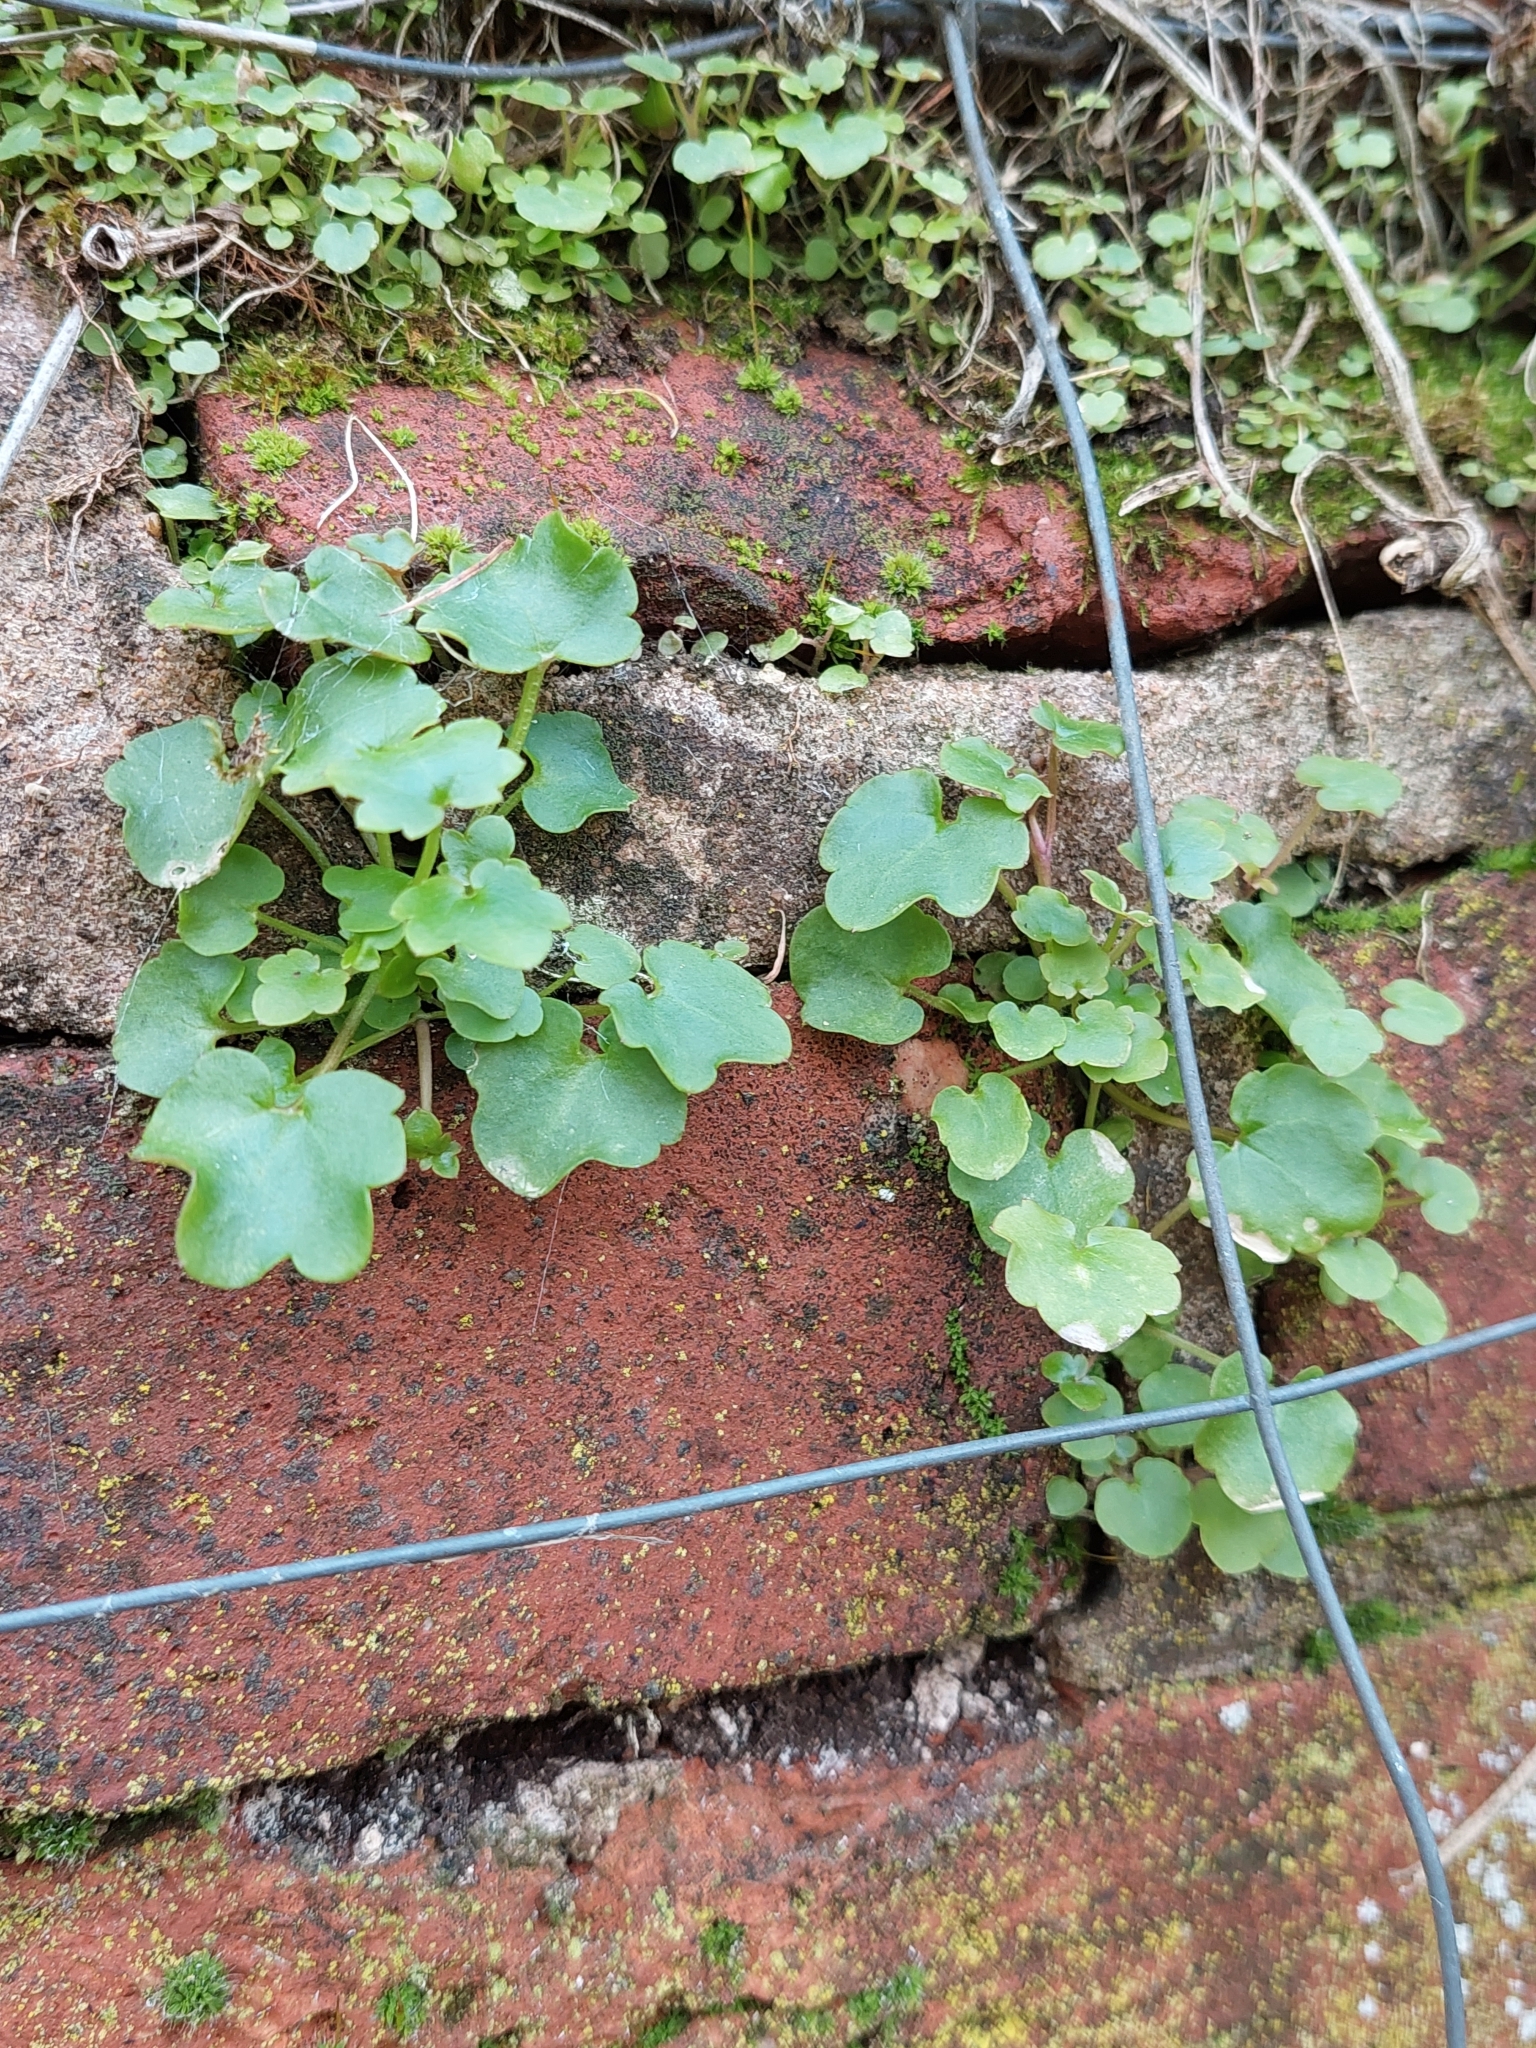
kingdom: Plantae
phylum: Tracheophyta
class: Magnoliopsida
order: Lamiales
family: Plantaginaceae
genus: Cymbalaria
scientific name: Cymbalaria muralis
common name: Ivy-leaved toadflax
